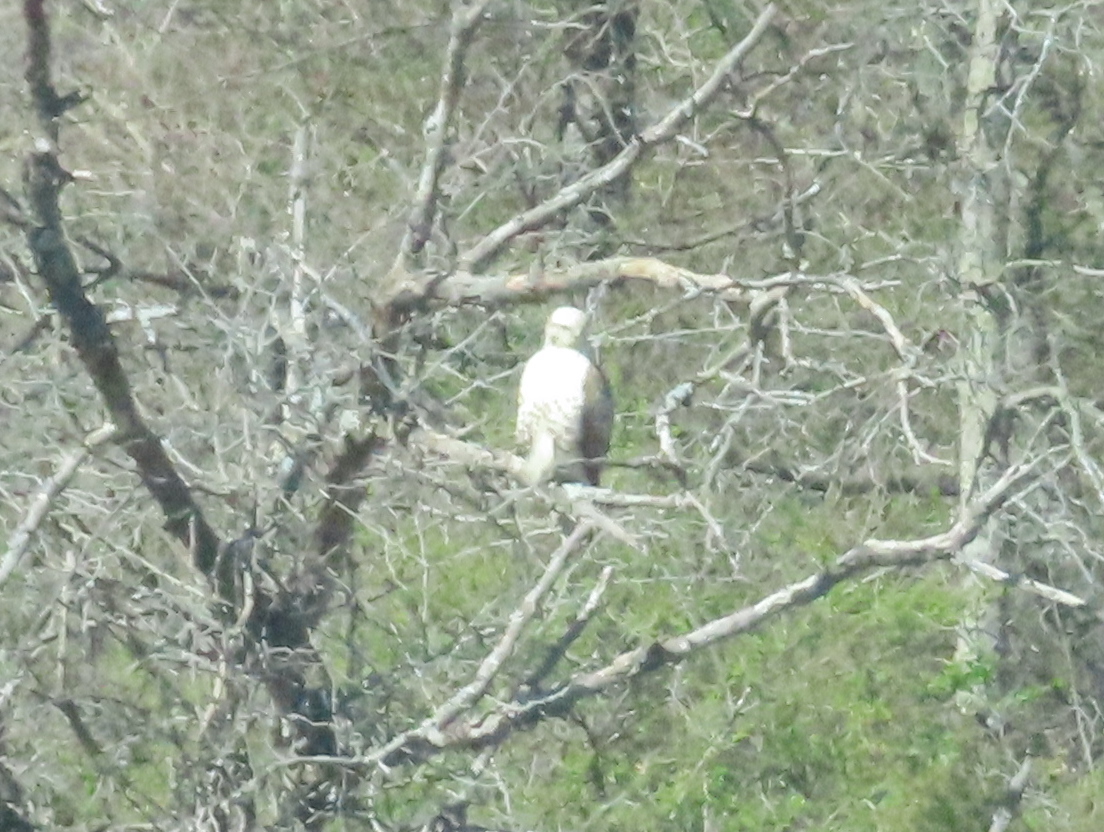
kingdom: Animalia
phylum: Chordata
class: Aves
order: Accipitriformes
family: Accipitridae
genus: Buteo
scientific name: Buteo jamaicensis
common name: Red-tailed hawk
